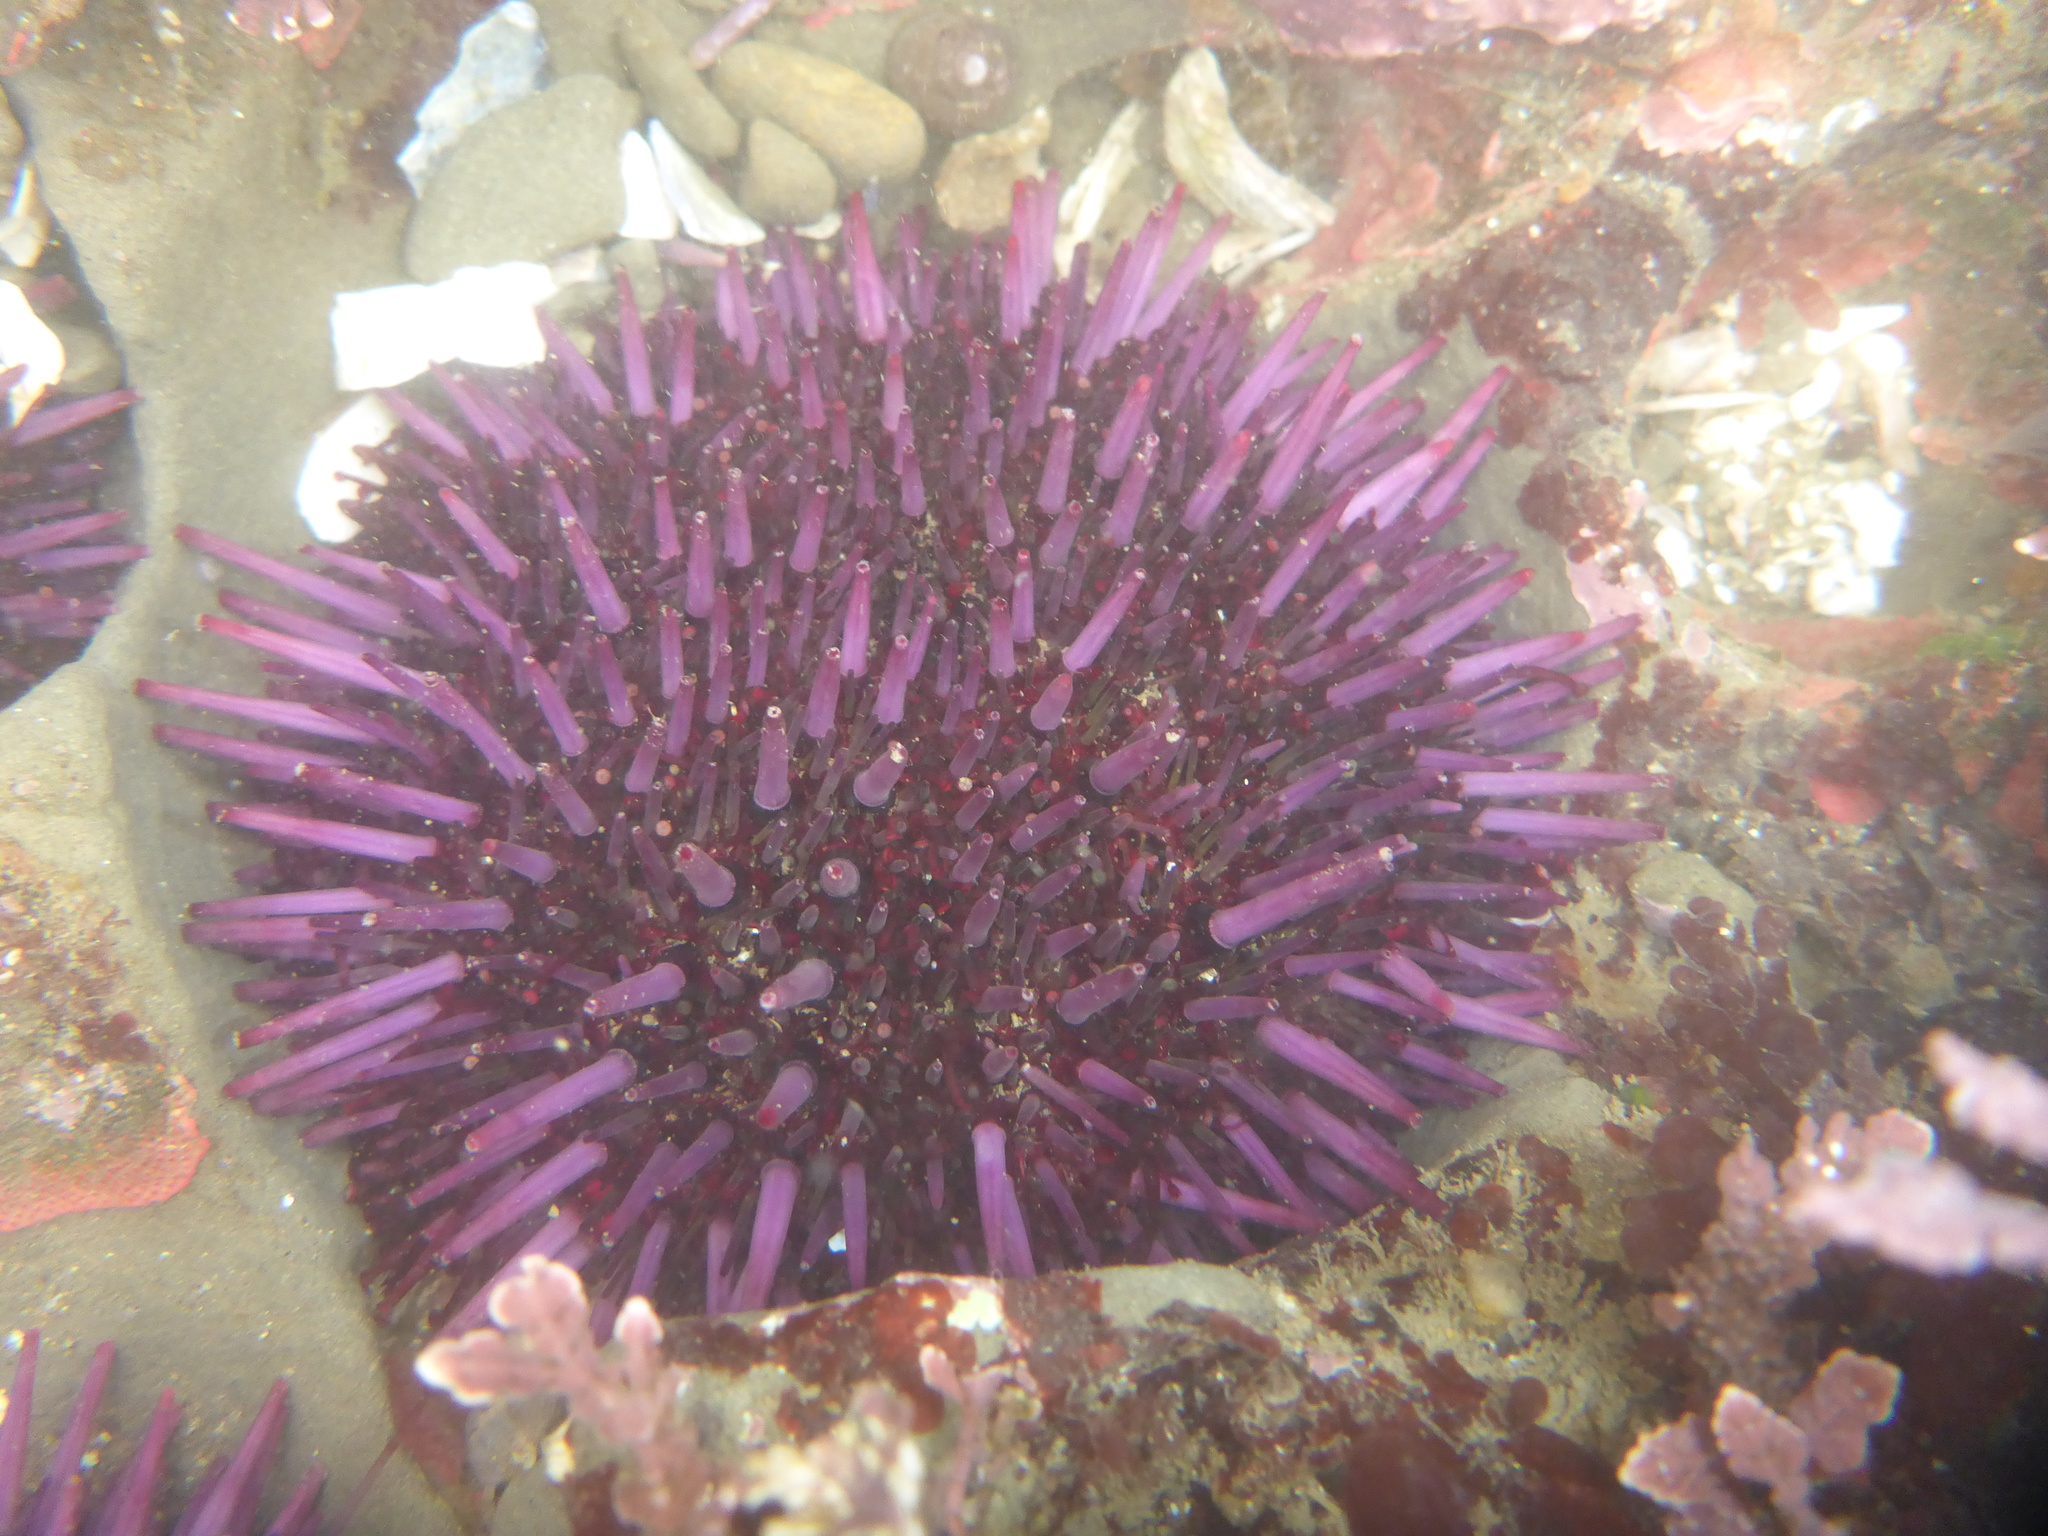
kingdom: Animalia
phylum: Echinodermata
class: Echinoidea
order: Camarodonta
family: Strongylocentrotidae
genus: Strongylocentrotus
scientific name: Strongylocentrotus purpuratus
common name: Purple sea urchin
